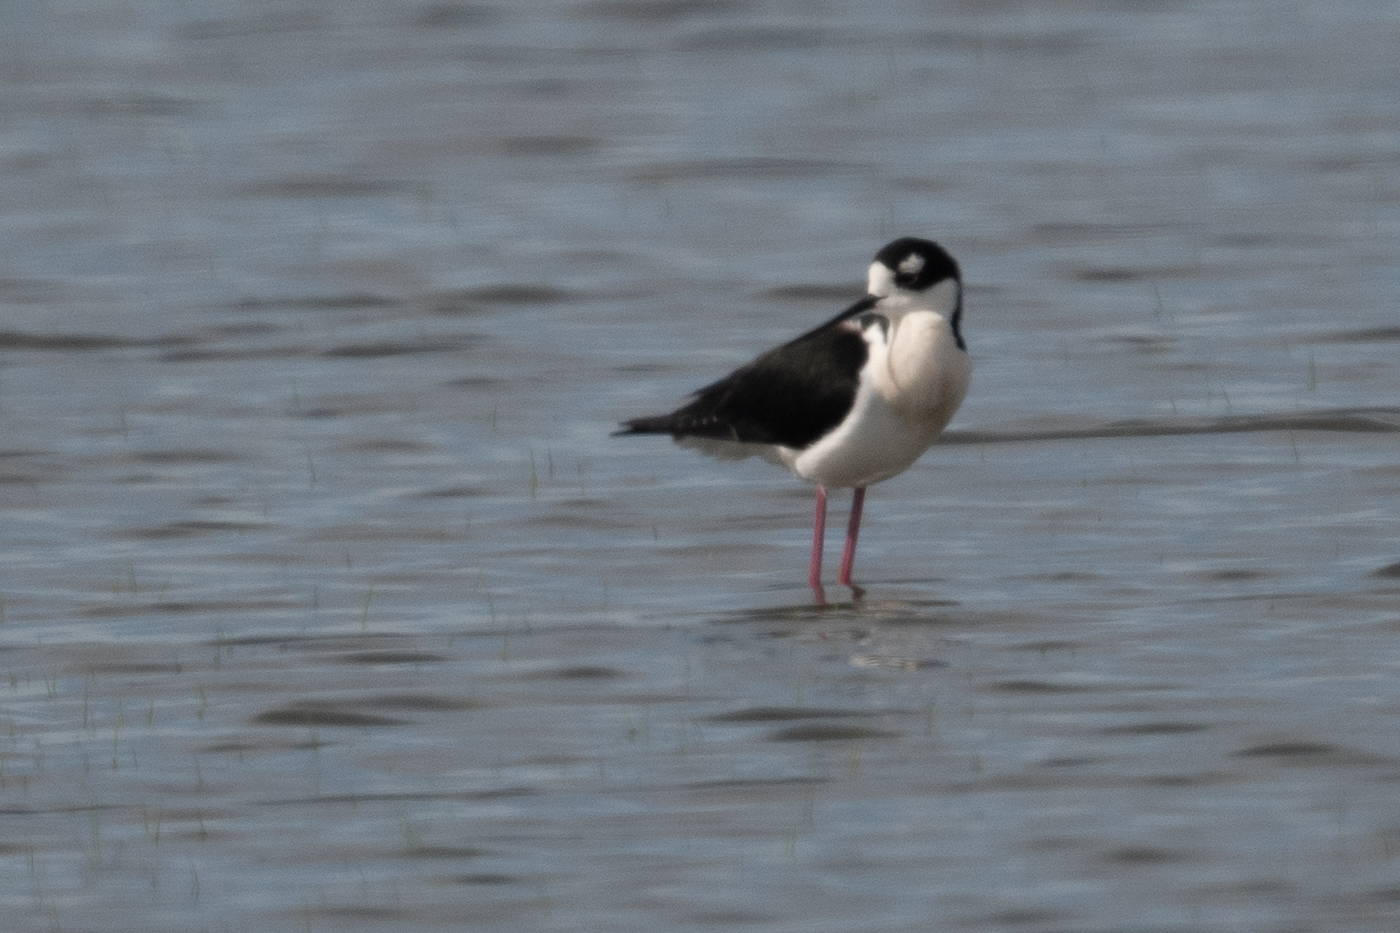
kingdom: Animalia
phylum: Chordata
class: Aves
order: Charadriiformes
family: Recurvirostridae
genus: Himantopus
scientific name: Himantopus mexicanus
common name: Black-necked stilt
